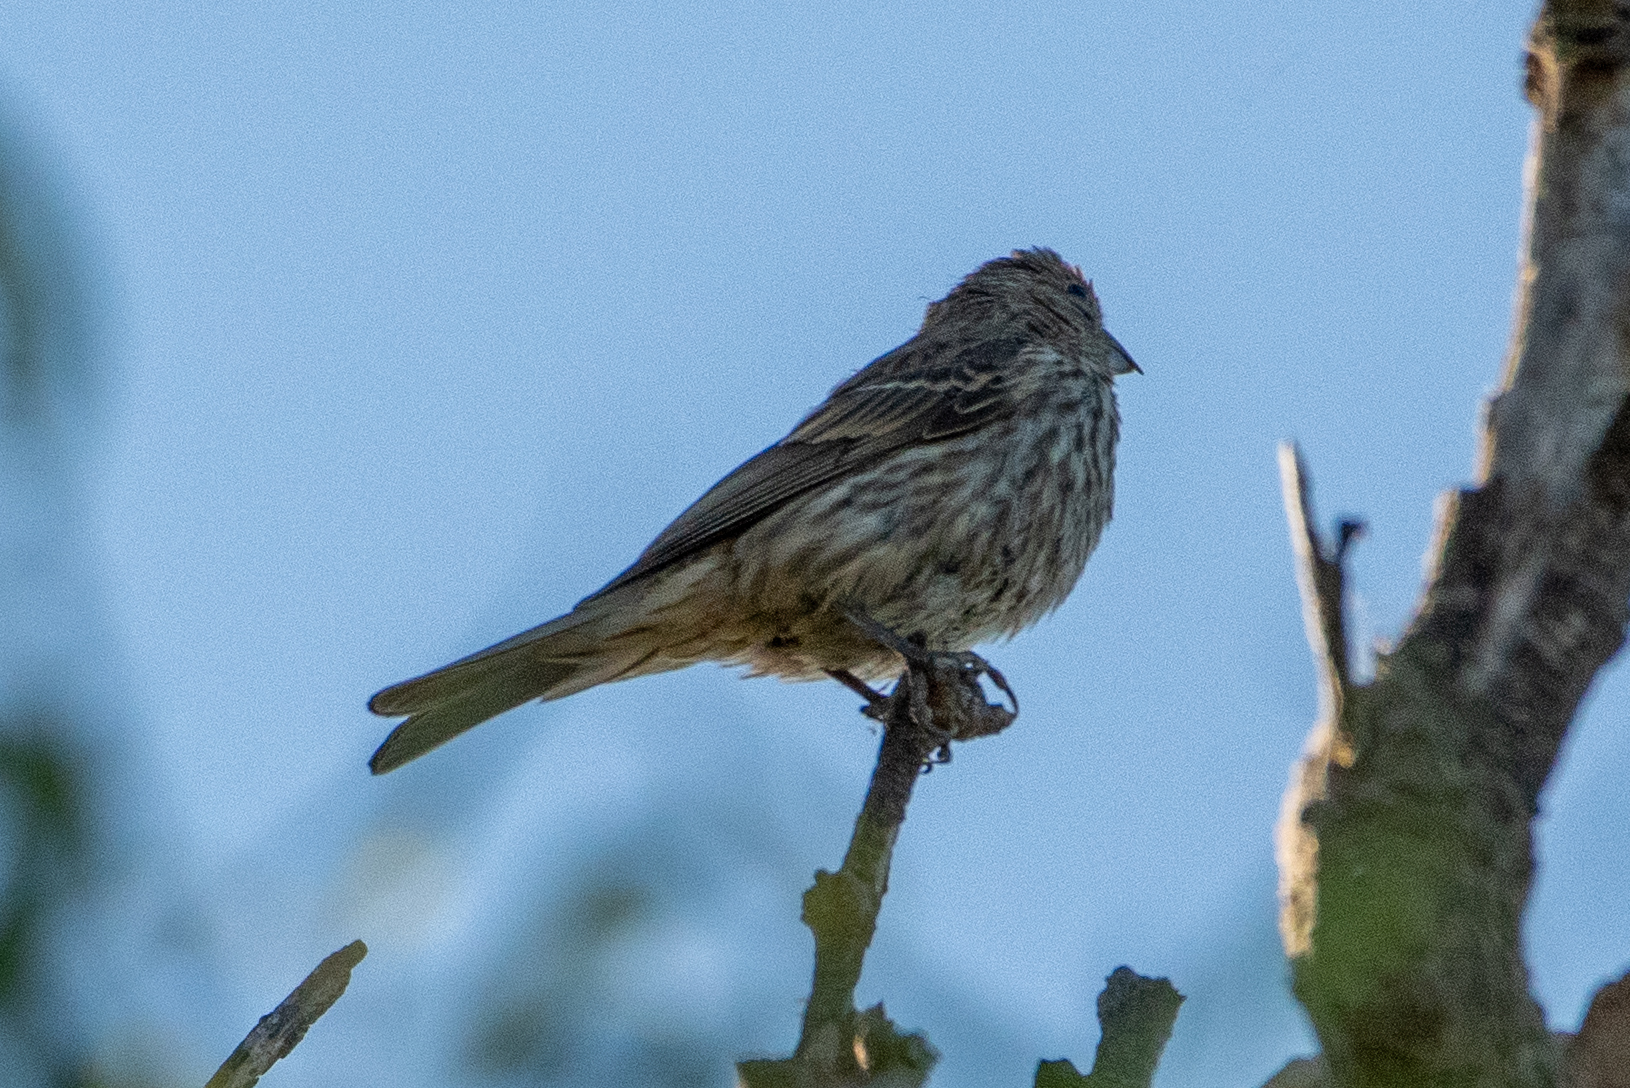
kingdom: Animalia
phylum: Chordata
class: Aves
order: Passeriformes
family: Fringillidae
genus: Haemorhous
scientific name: Haemorhous mexicanus
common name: House finch
